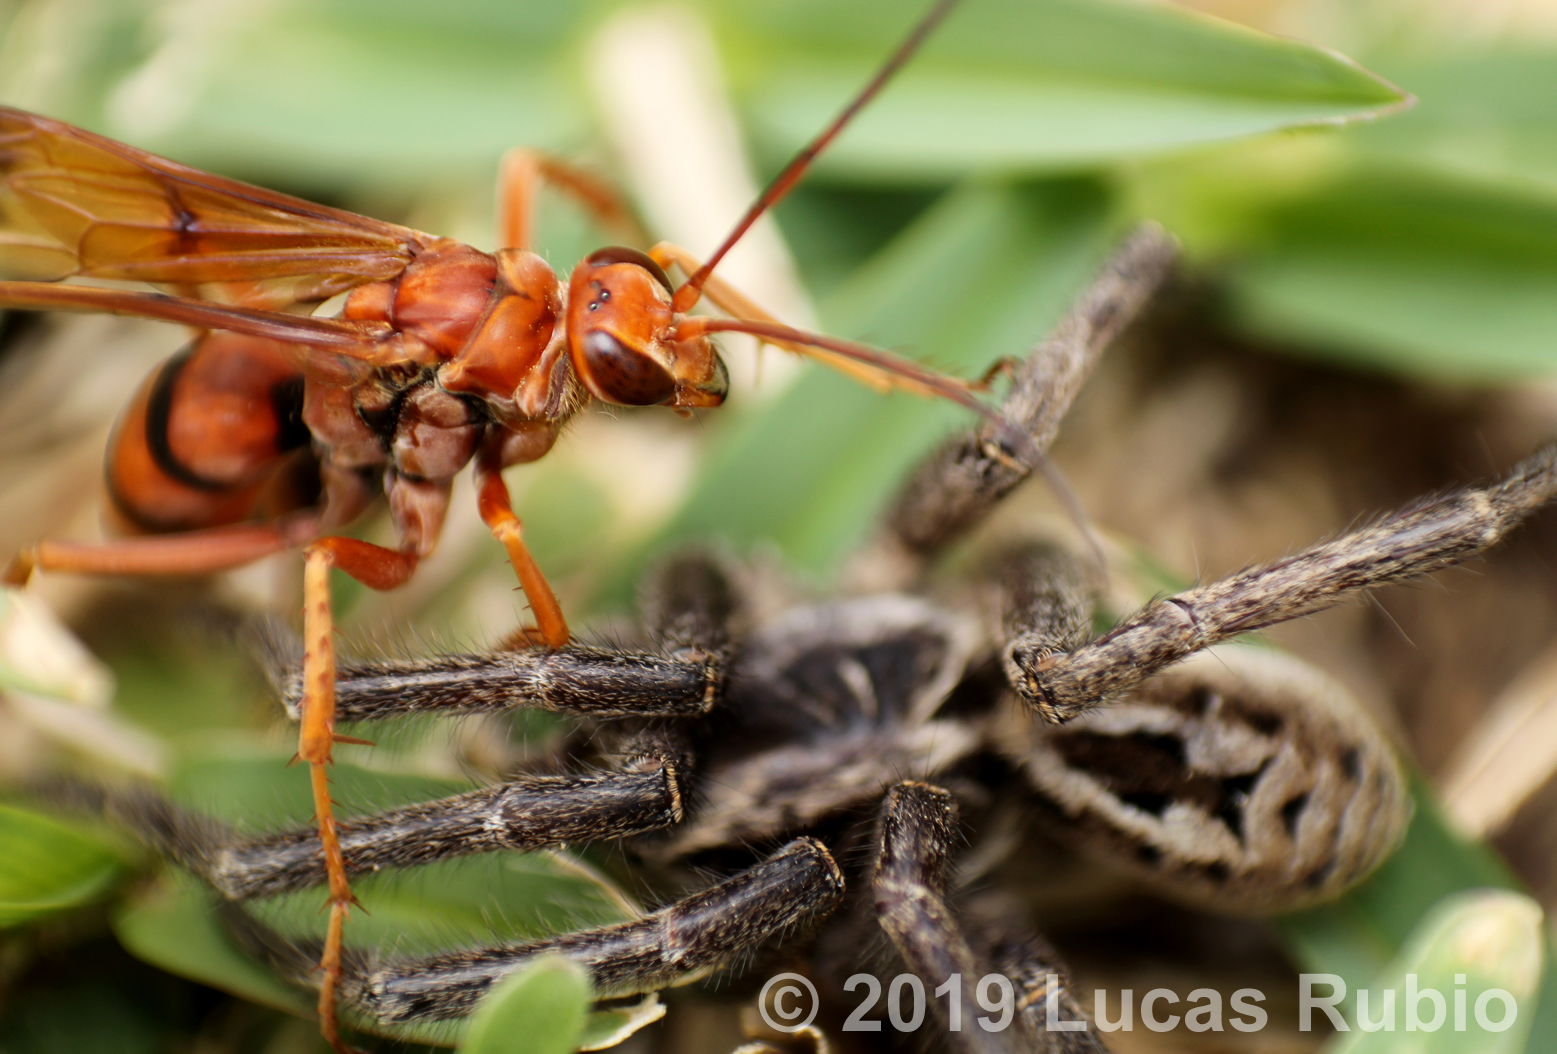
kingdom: Animalia
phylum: Arthropoda
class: Insecta
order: Hymenoptera
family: Pompilidae
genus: Tachypompilus
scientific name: Tachypompilus mendozae
